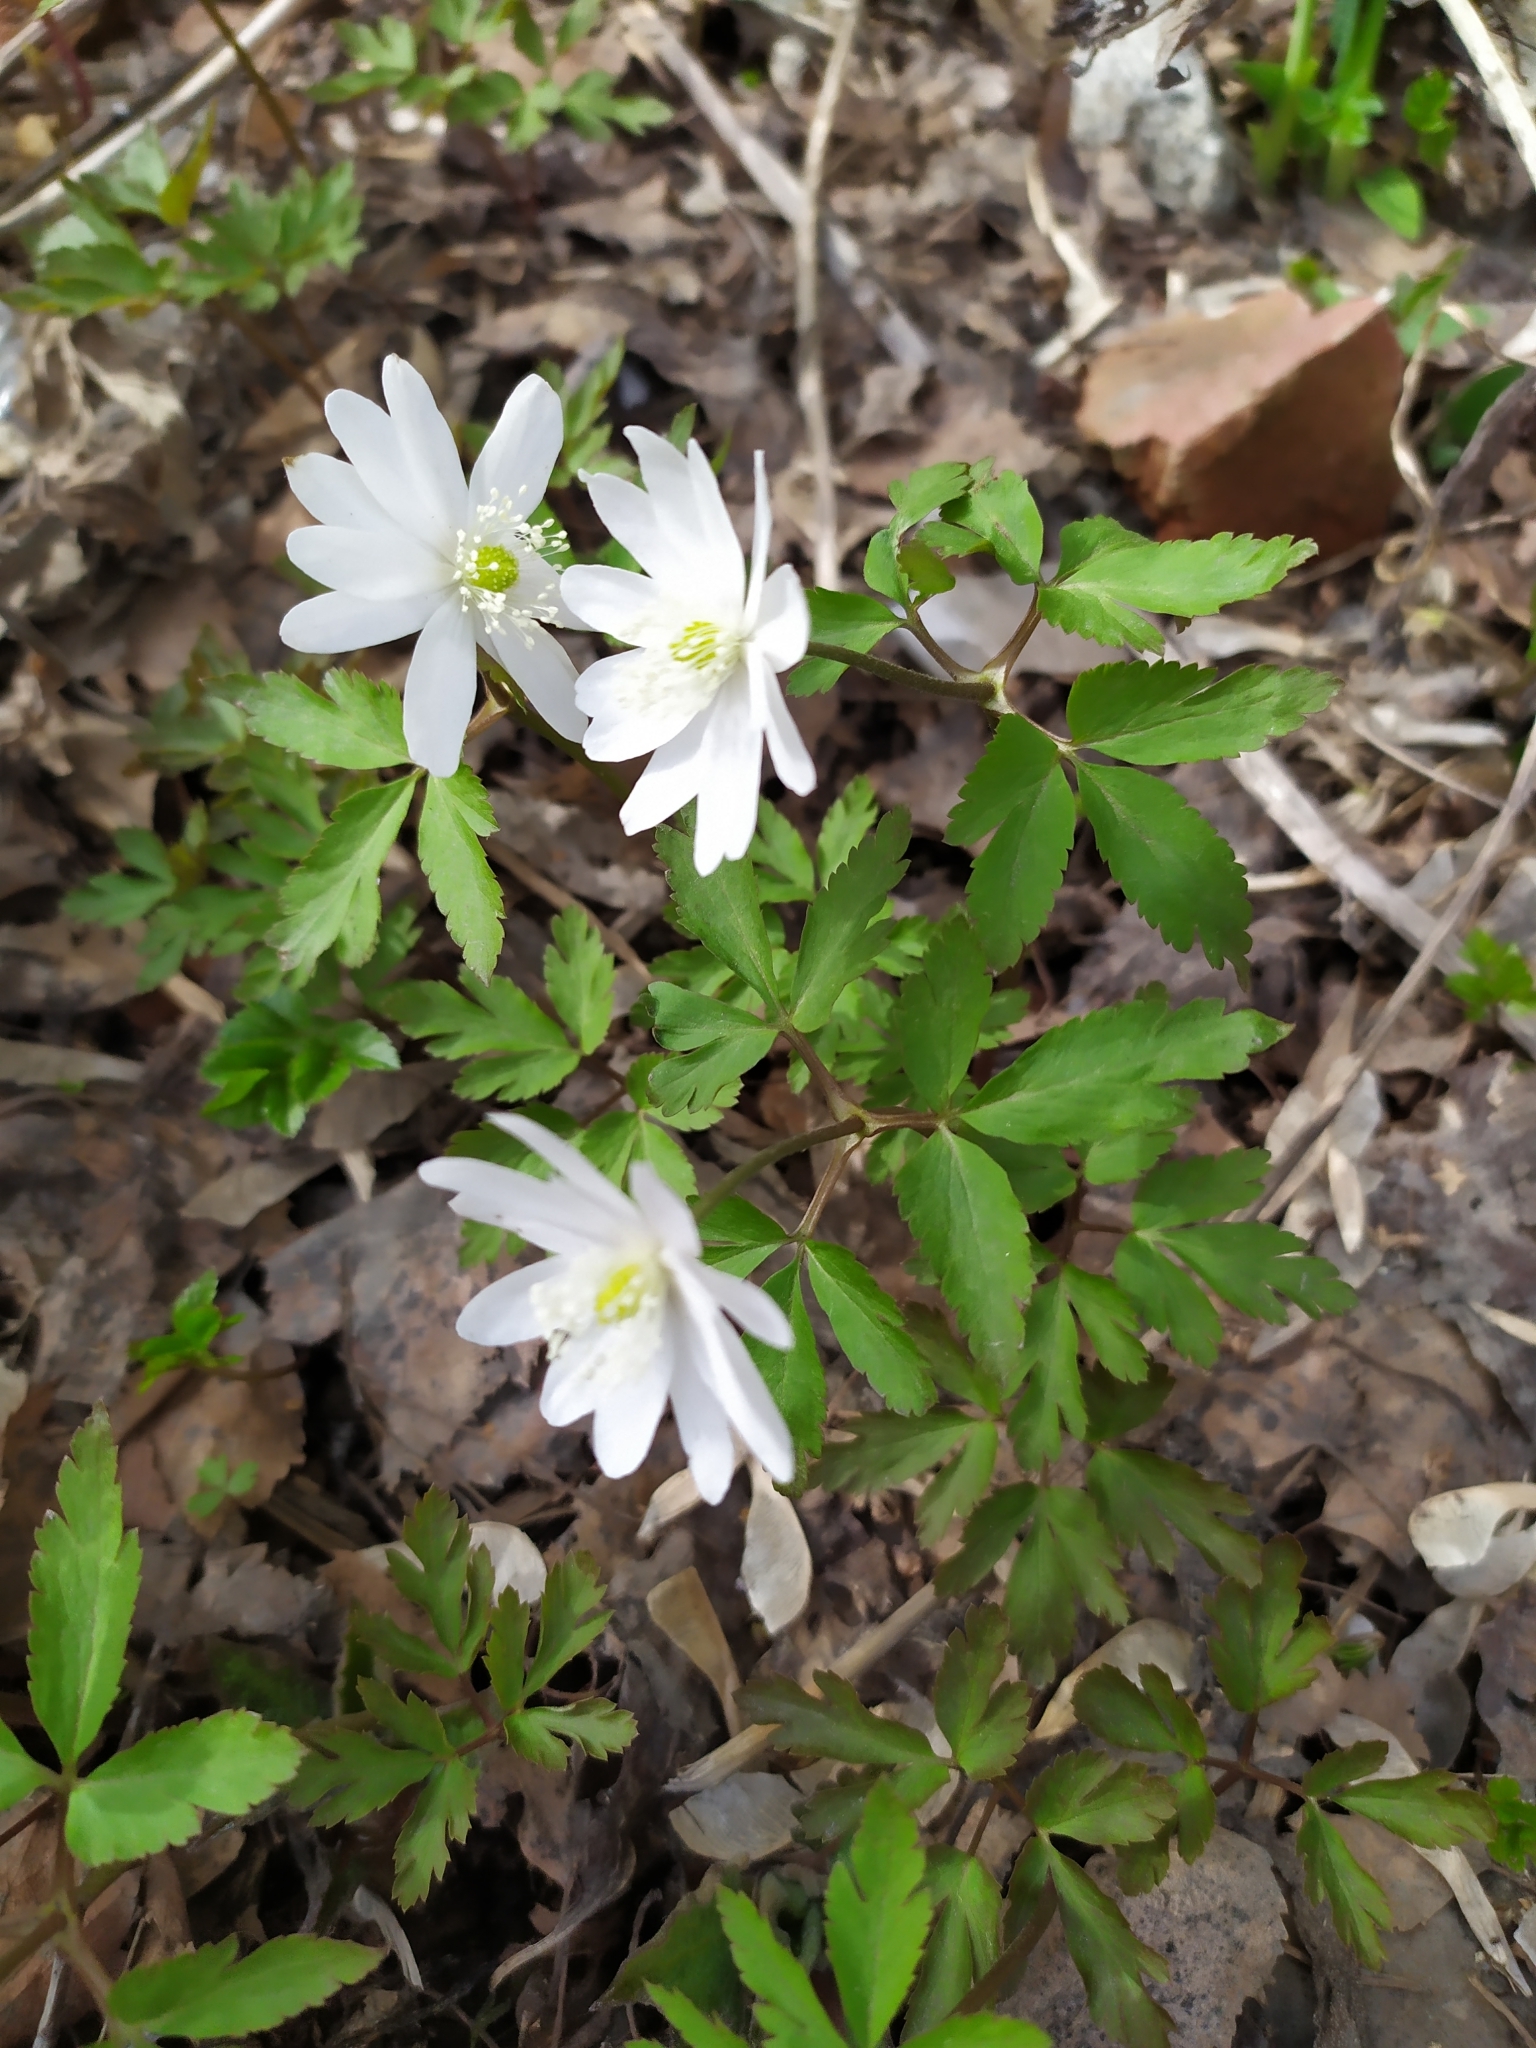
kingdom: Plantae
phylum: Tracheophyta
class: Magnoliopsida
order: Ranunculales
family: Ranunculaceae
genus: Anemone
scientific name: Anemone altaica
